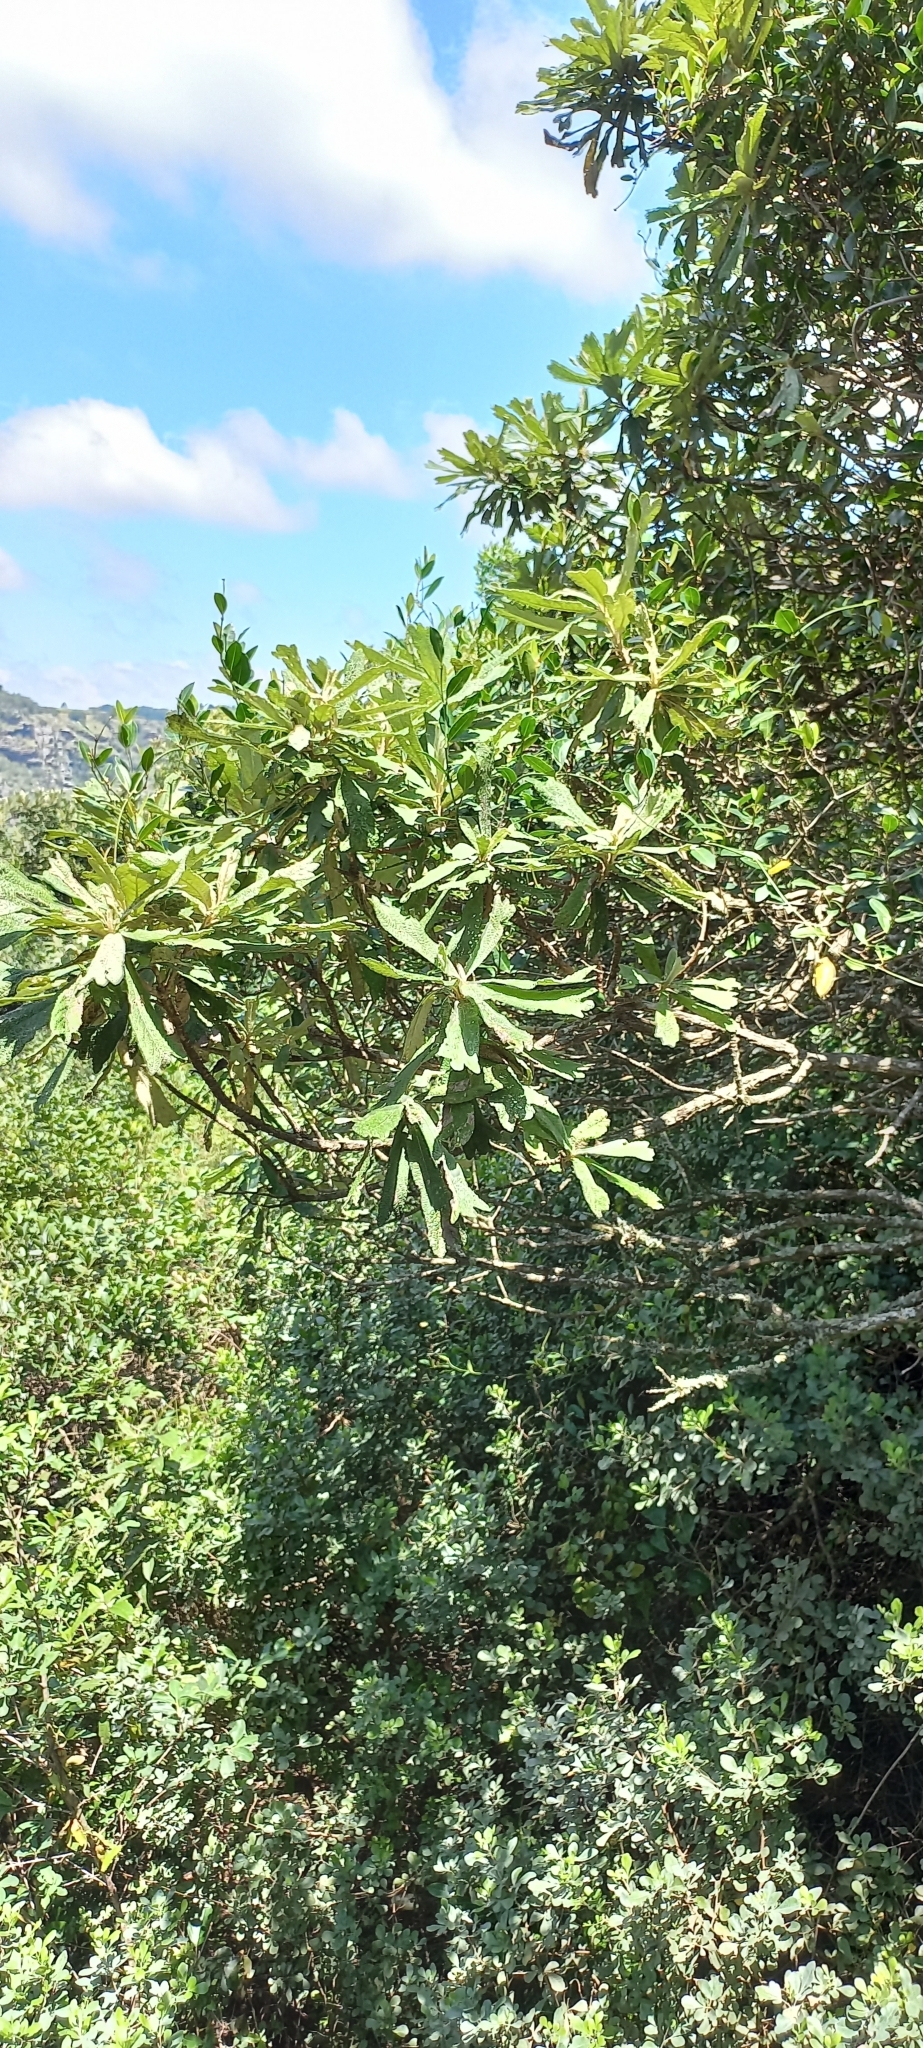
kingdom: Plantae
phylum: Tracheophyta
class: Magnoliopsida
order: Asterales
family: Asteraceae
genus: Tarchonanthus
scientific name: Tarchonanthus trilobus
